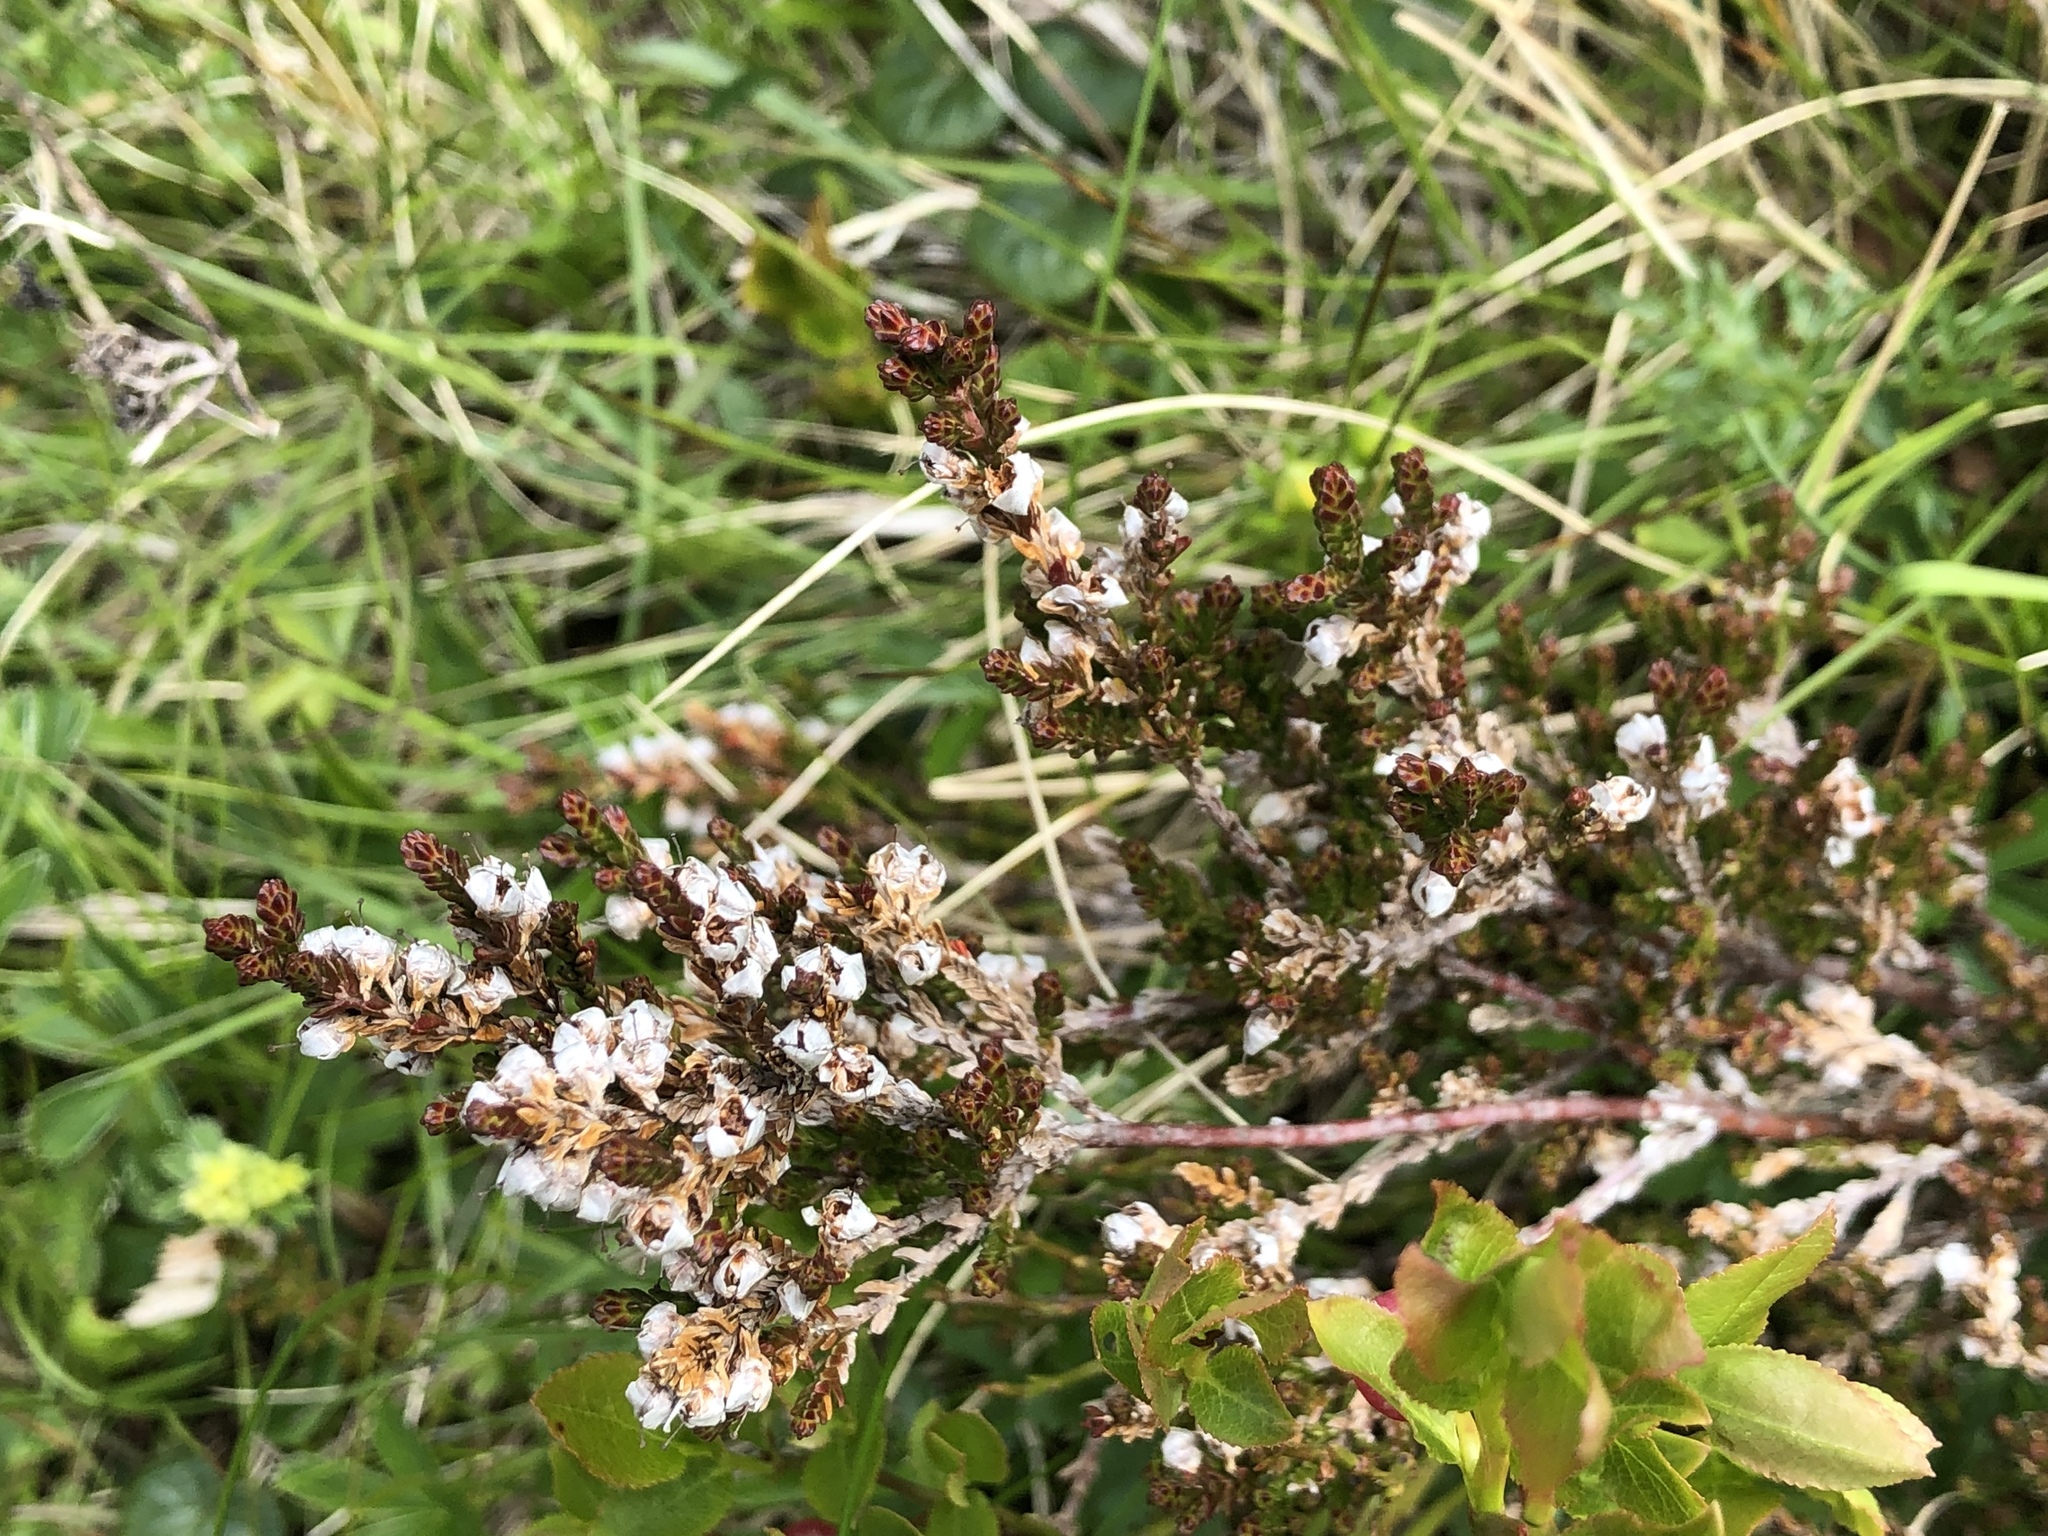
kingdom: Plantae
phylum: Tracheophyta
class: Magnoliopsida
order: Ericales
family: Ericaceae
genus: Calluna
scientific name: Calluna vulgaris
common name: Heather
